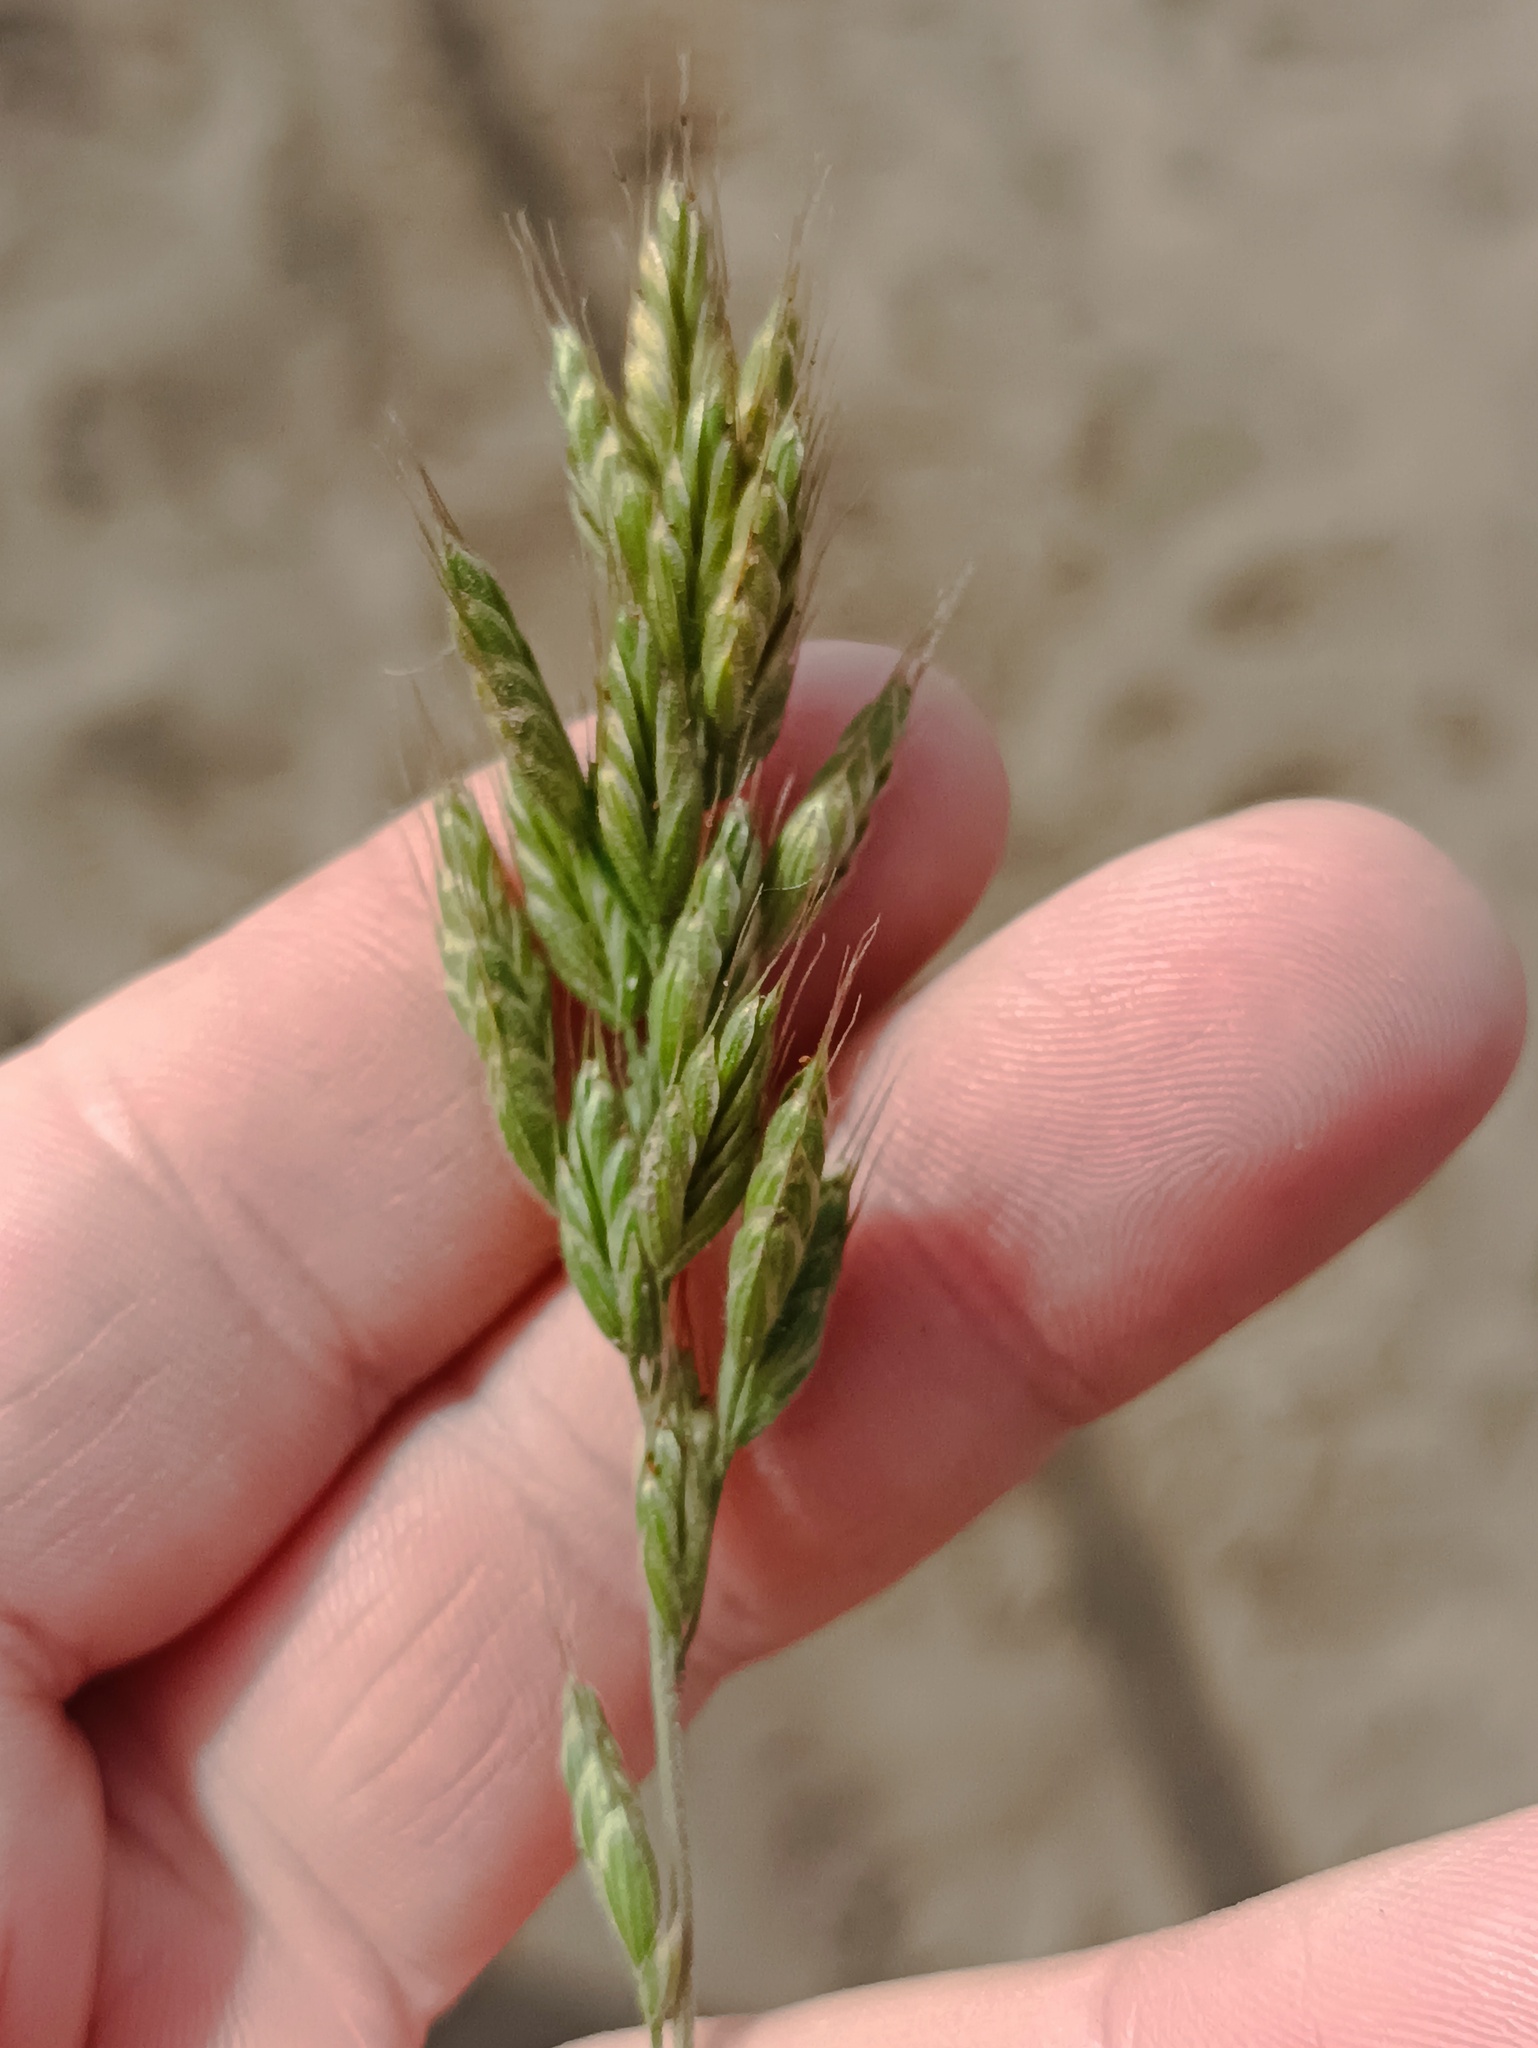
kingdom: Plantae
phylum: Tracheophyta
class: Liliopsida
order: Poales
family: Poaceae
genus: Bromus
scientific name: Bromus hordeaceus
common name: Soft brome
